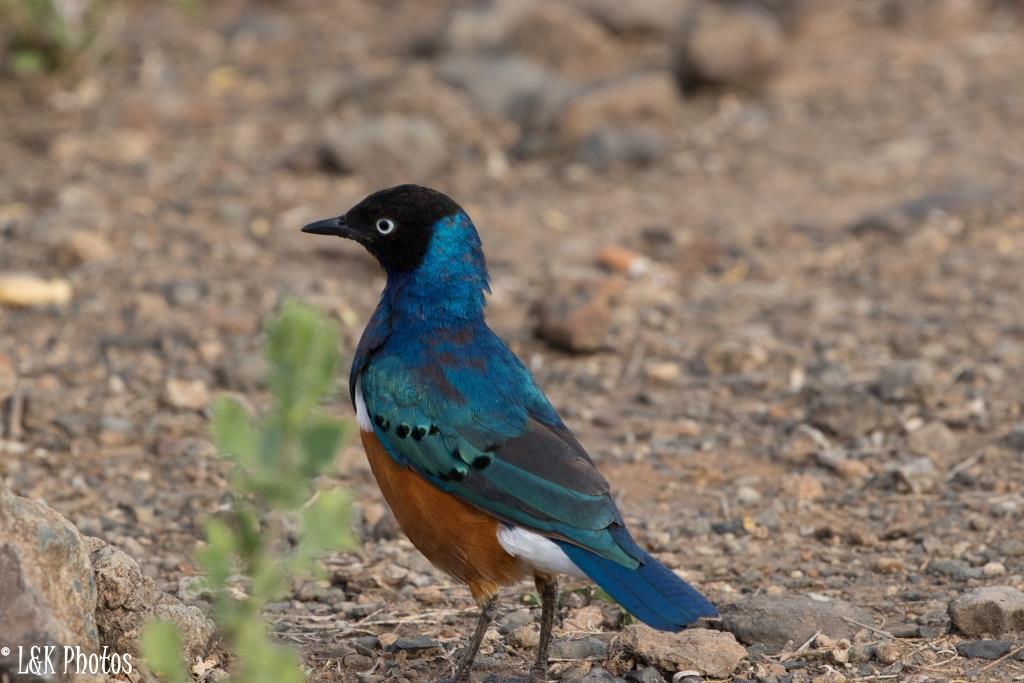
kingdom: Animalia
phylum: Chordata
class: Aves
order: Passeriformes
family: Sturnidae
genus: Lamprotornis
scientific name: Lamprotornis superbus
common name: Superb starling
